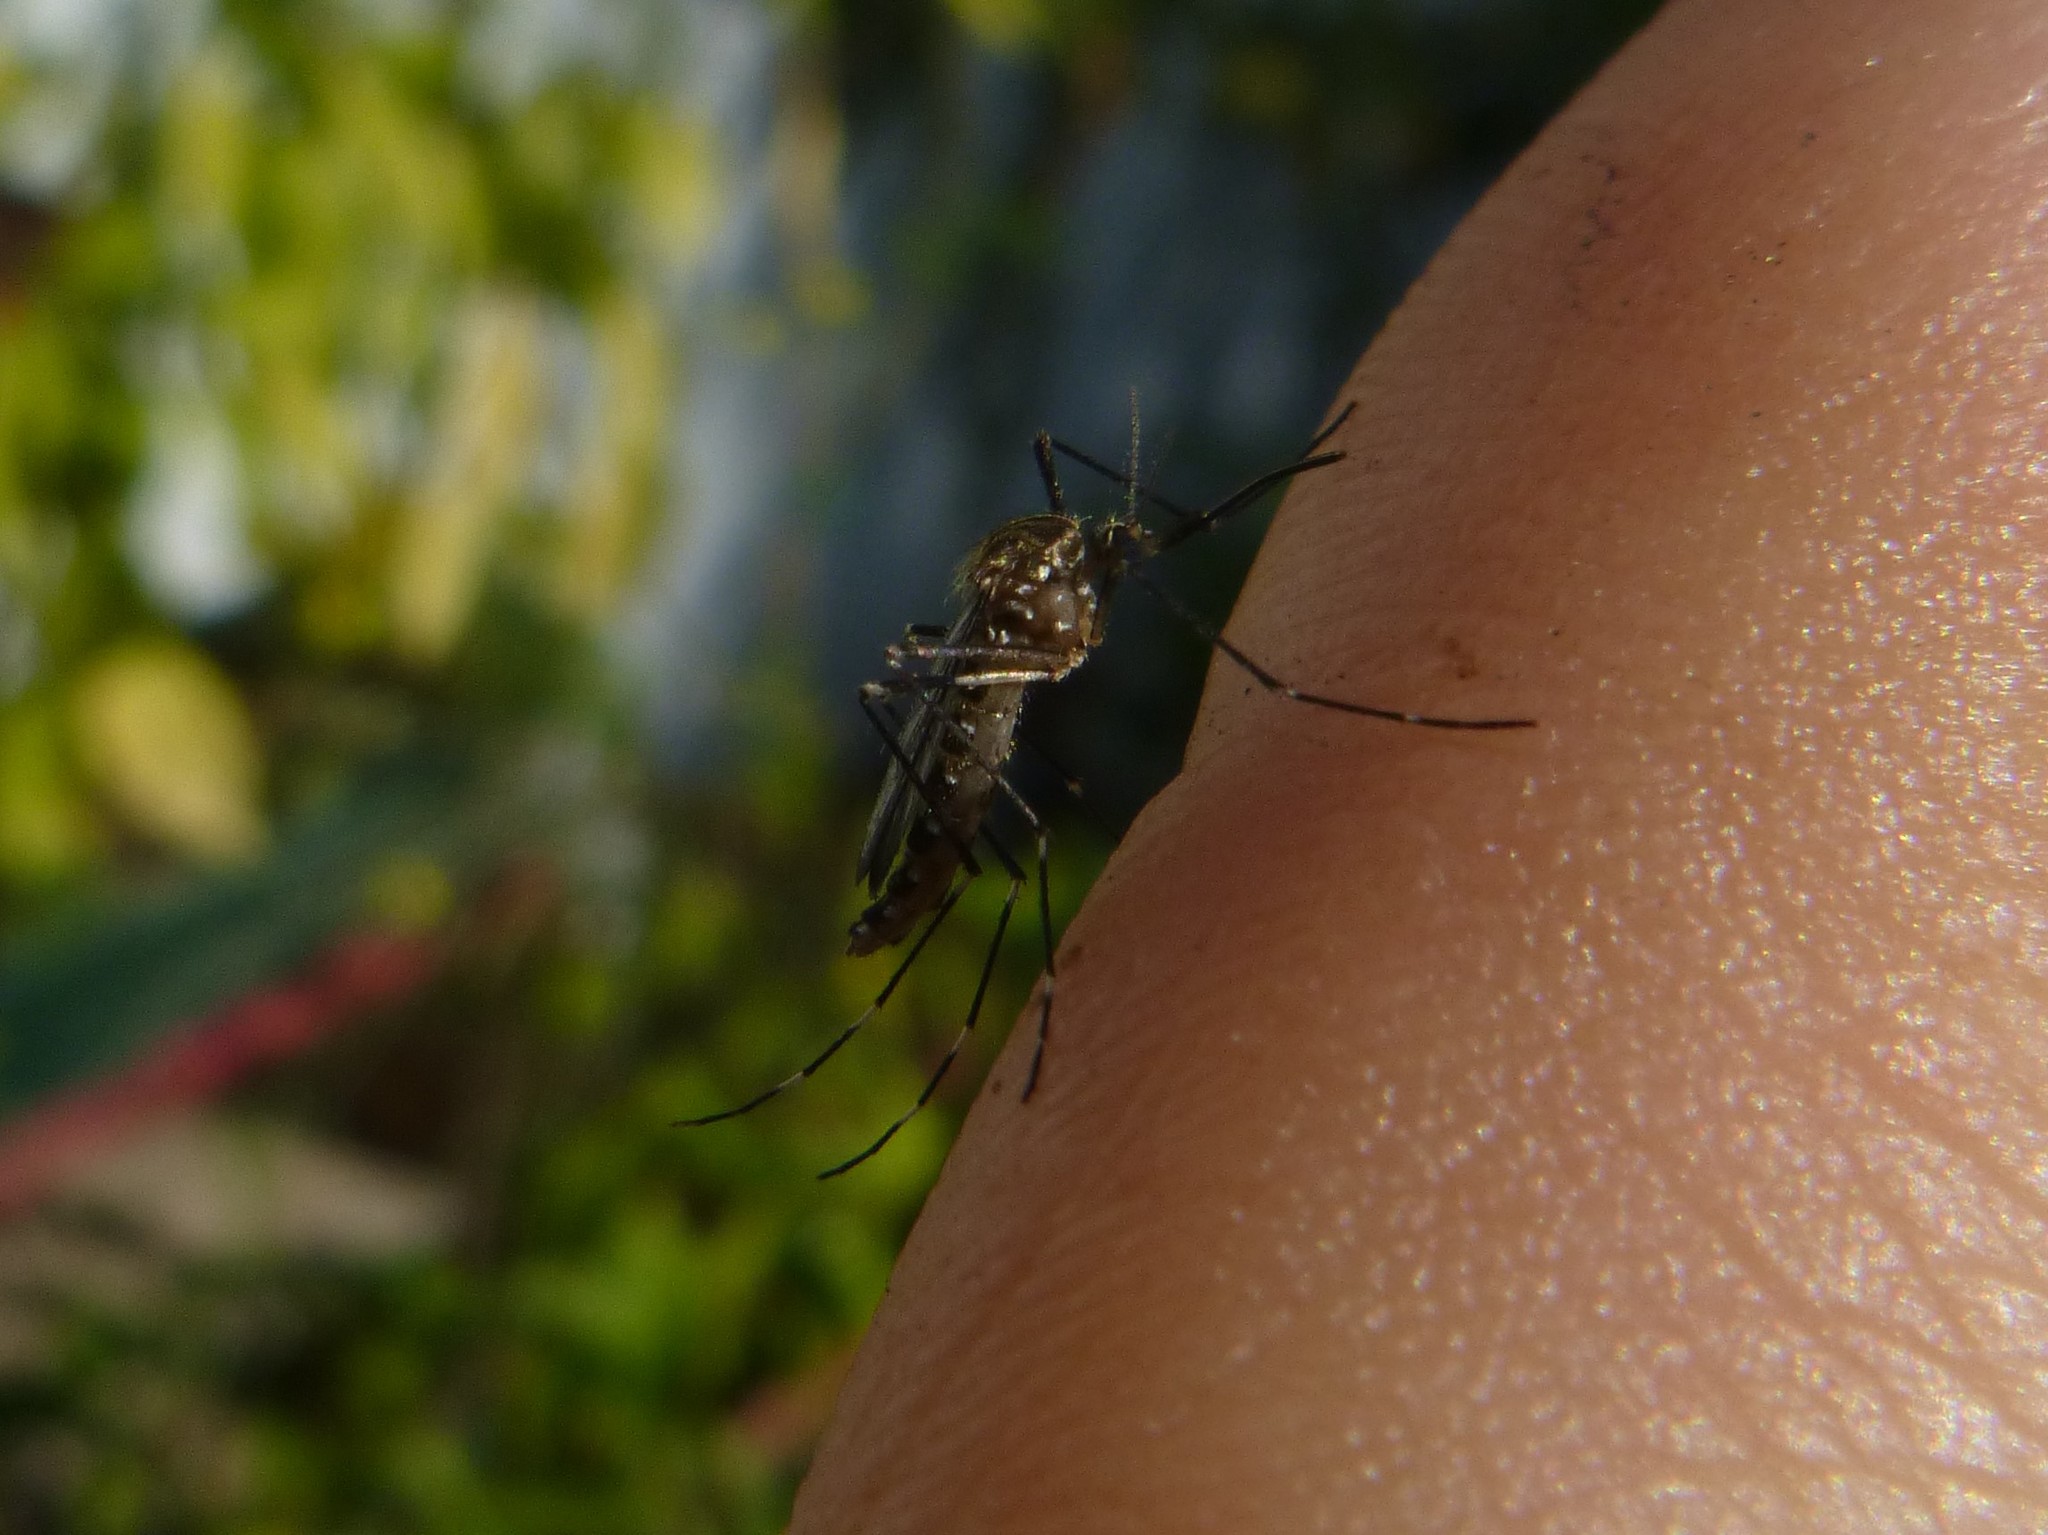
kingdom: Animalia
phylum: Arthropoda
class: Insecta
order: Diptera
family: Culicidae
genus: Aedes
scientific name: Aedes japonicus
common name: Asian bush mosquito
